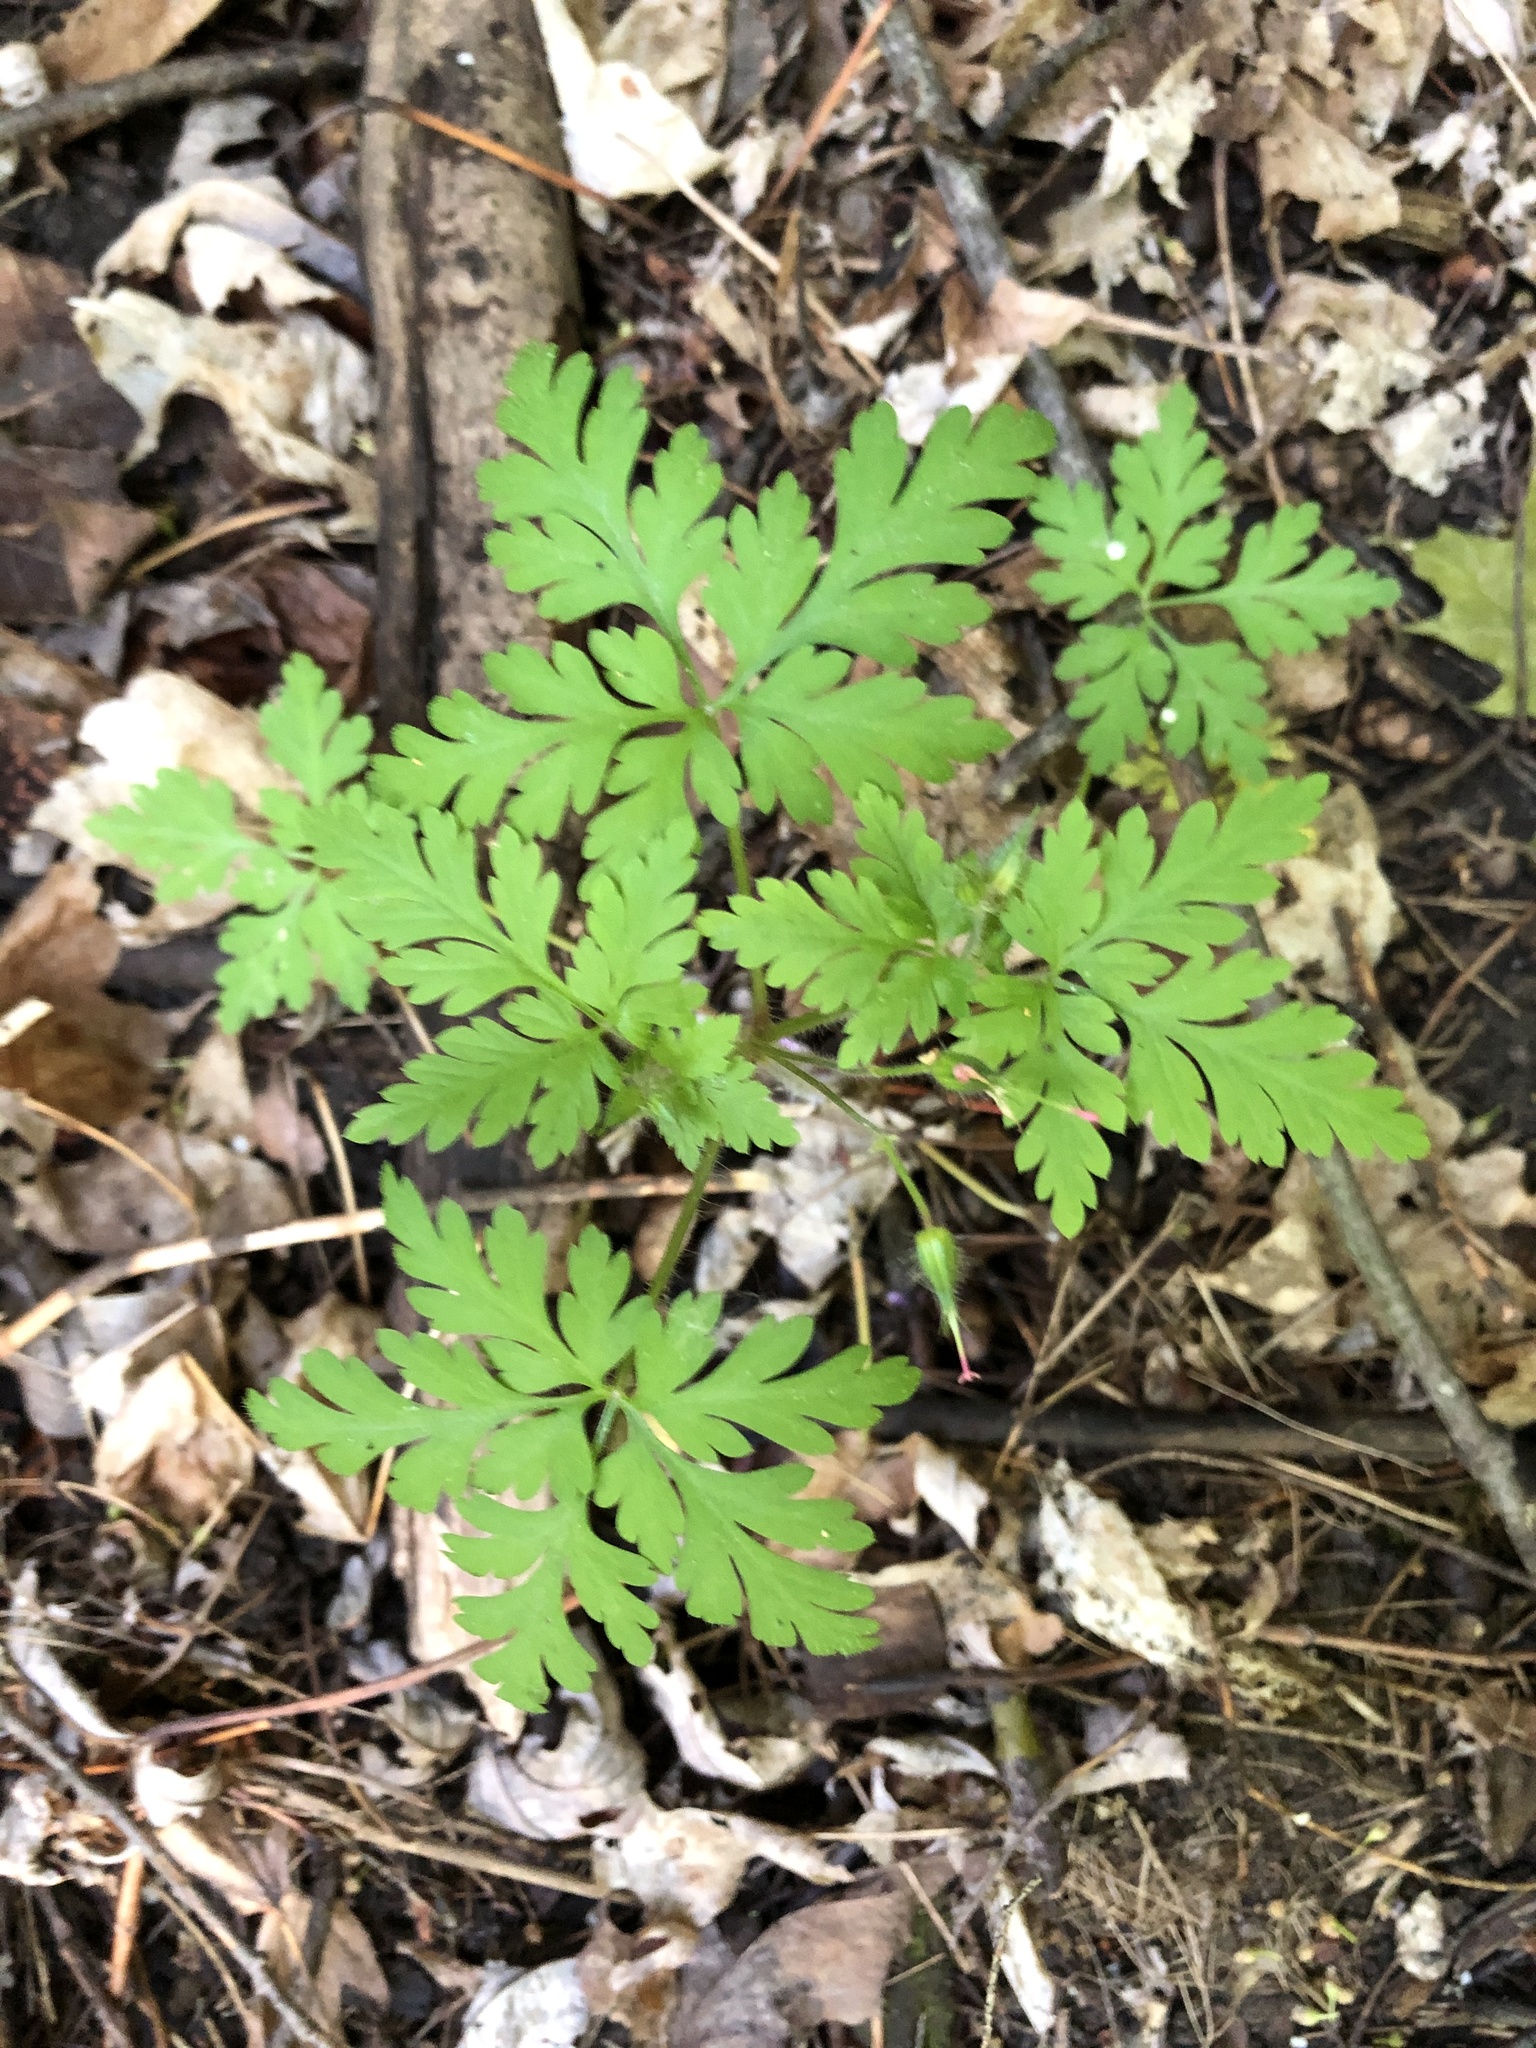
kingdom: Plantae
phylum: Tracheophyta
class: Magnoliopsida
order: Geraniales
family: Geraniaceae
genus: Geranium
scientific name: Geranium robertianum
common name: Herb-robert
